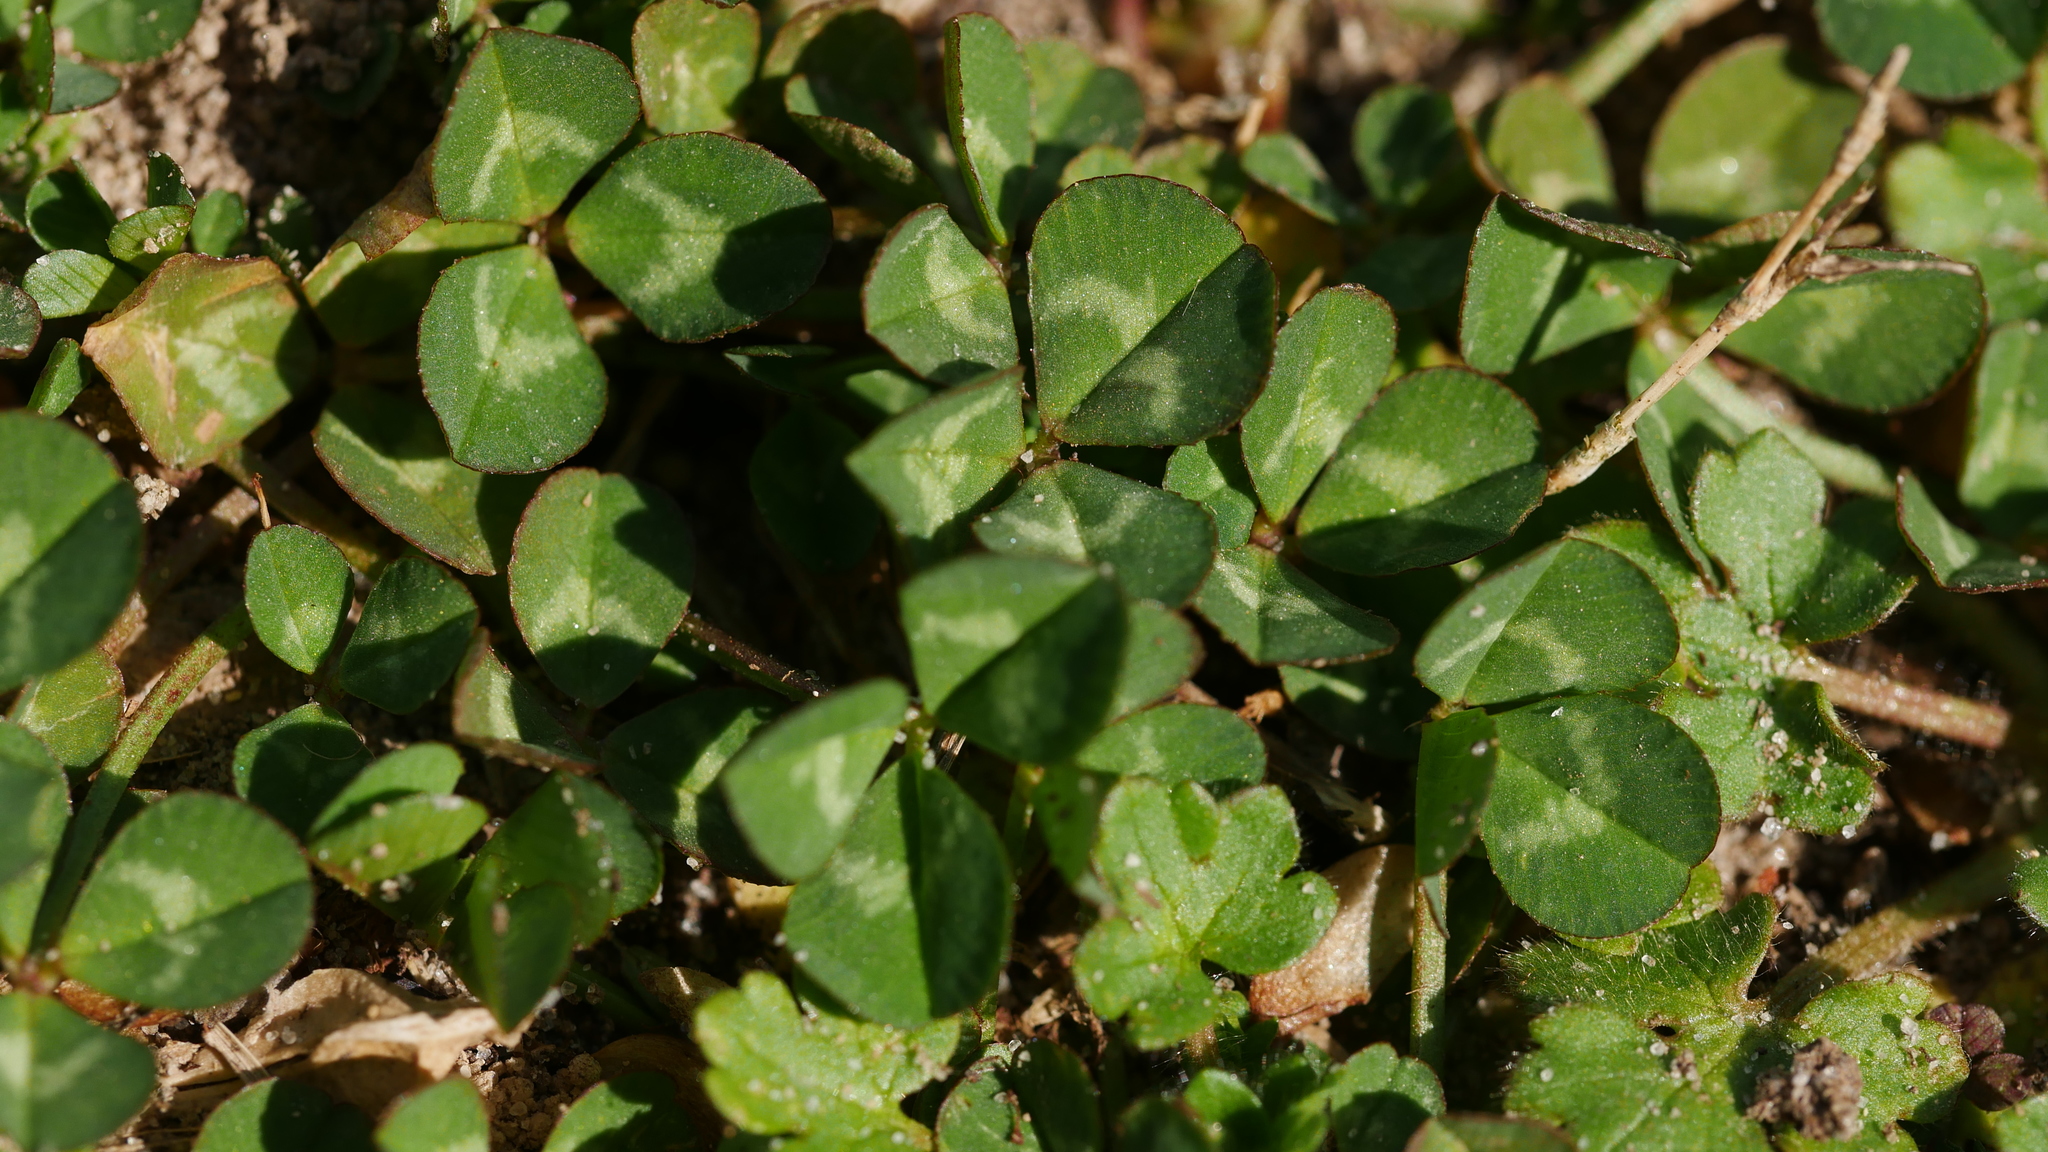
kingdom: Plantae
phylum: Tracheophyta
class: Magnoliopsida
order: Fabales
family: Fabaceae
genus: Trifolium
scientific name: Trifolium repens
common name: White clover
